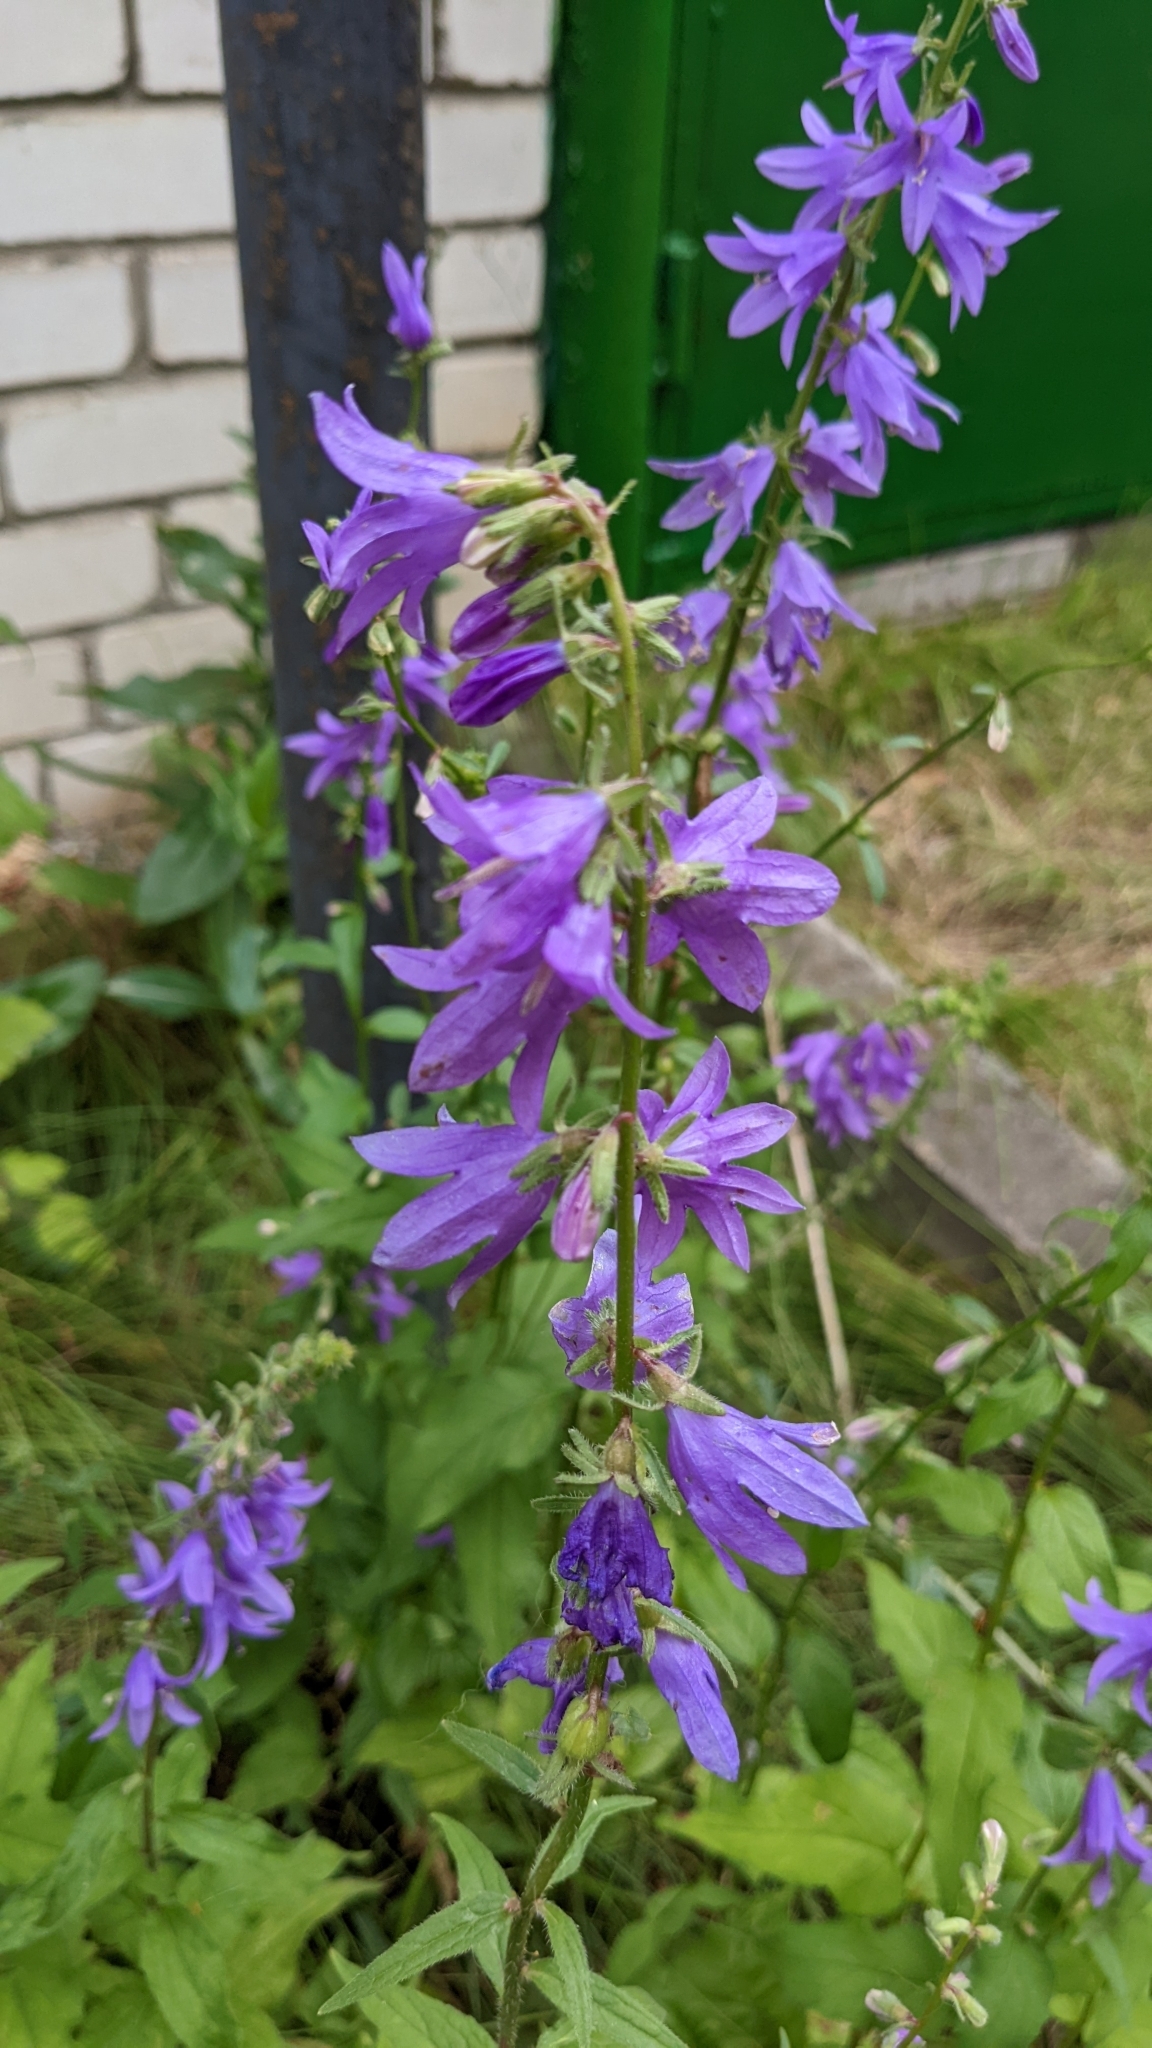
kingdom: Plantae
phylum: Tracheophyta
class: Magnoliopsida
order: Asterales
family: Campanulaceae
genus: Campanula
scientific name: Campanula rapunculoides
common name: Creeping bellflower
